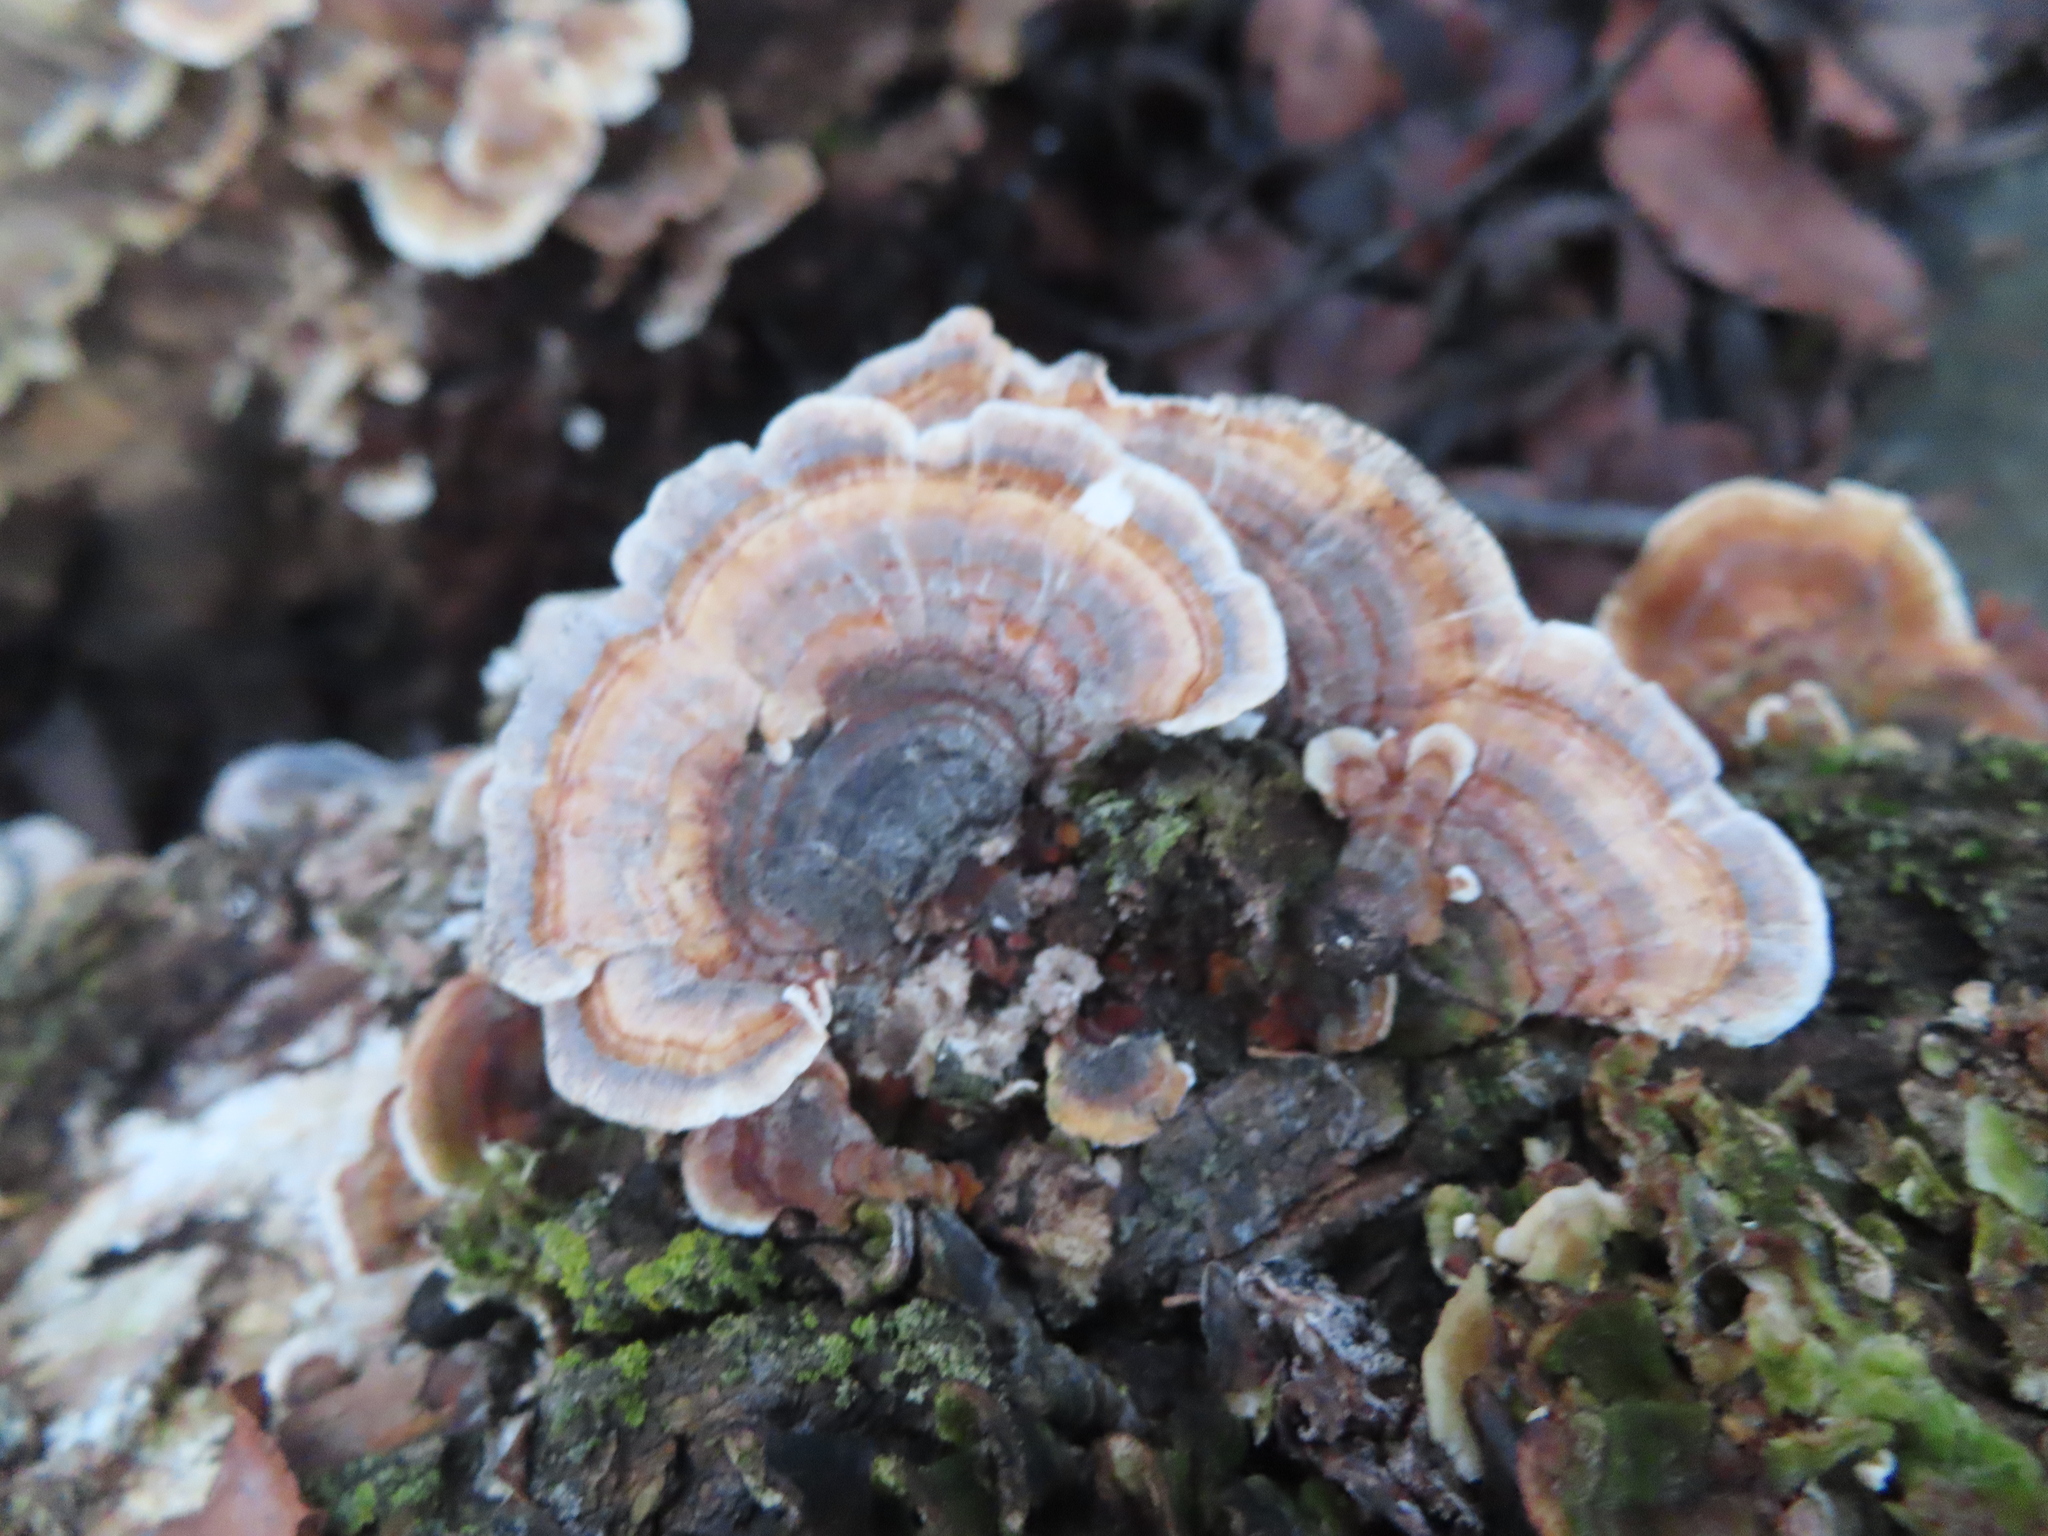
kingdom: Fungi
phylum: Basidiomycota
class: Agaricomycetes
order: Polyporales
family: Polyporaceae
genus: Trametes
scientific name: Trametes versicolor
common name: Turkeytail
